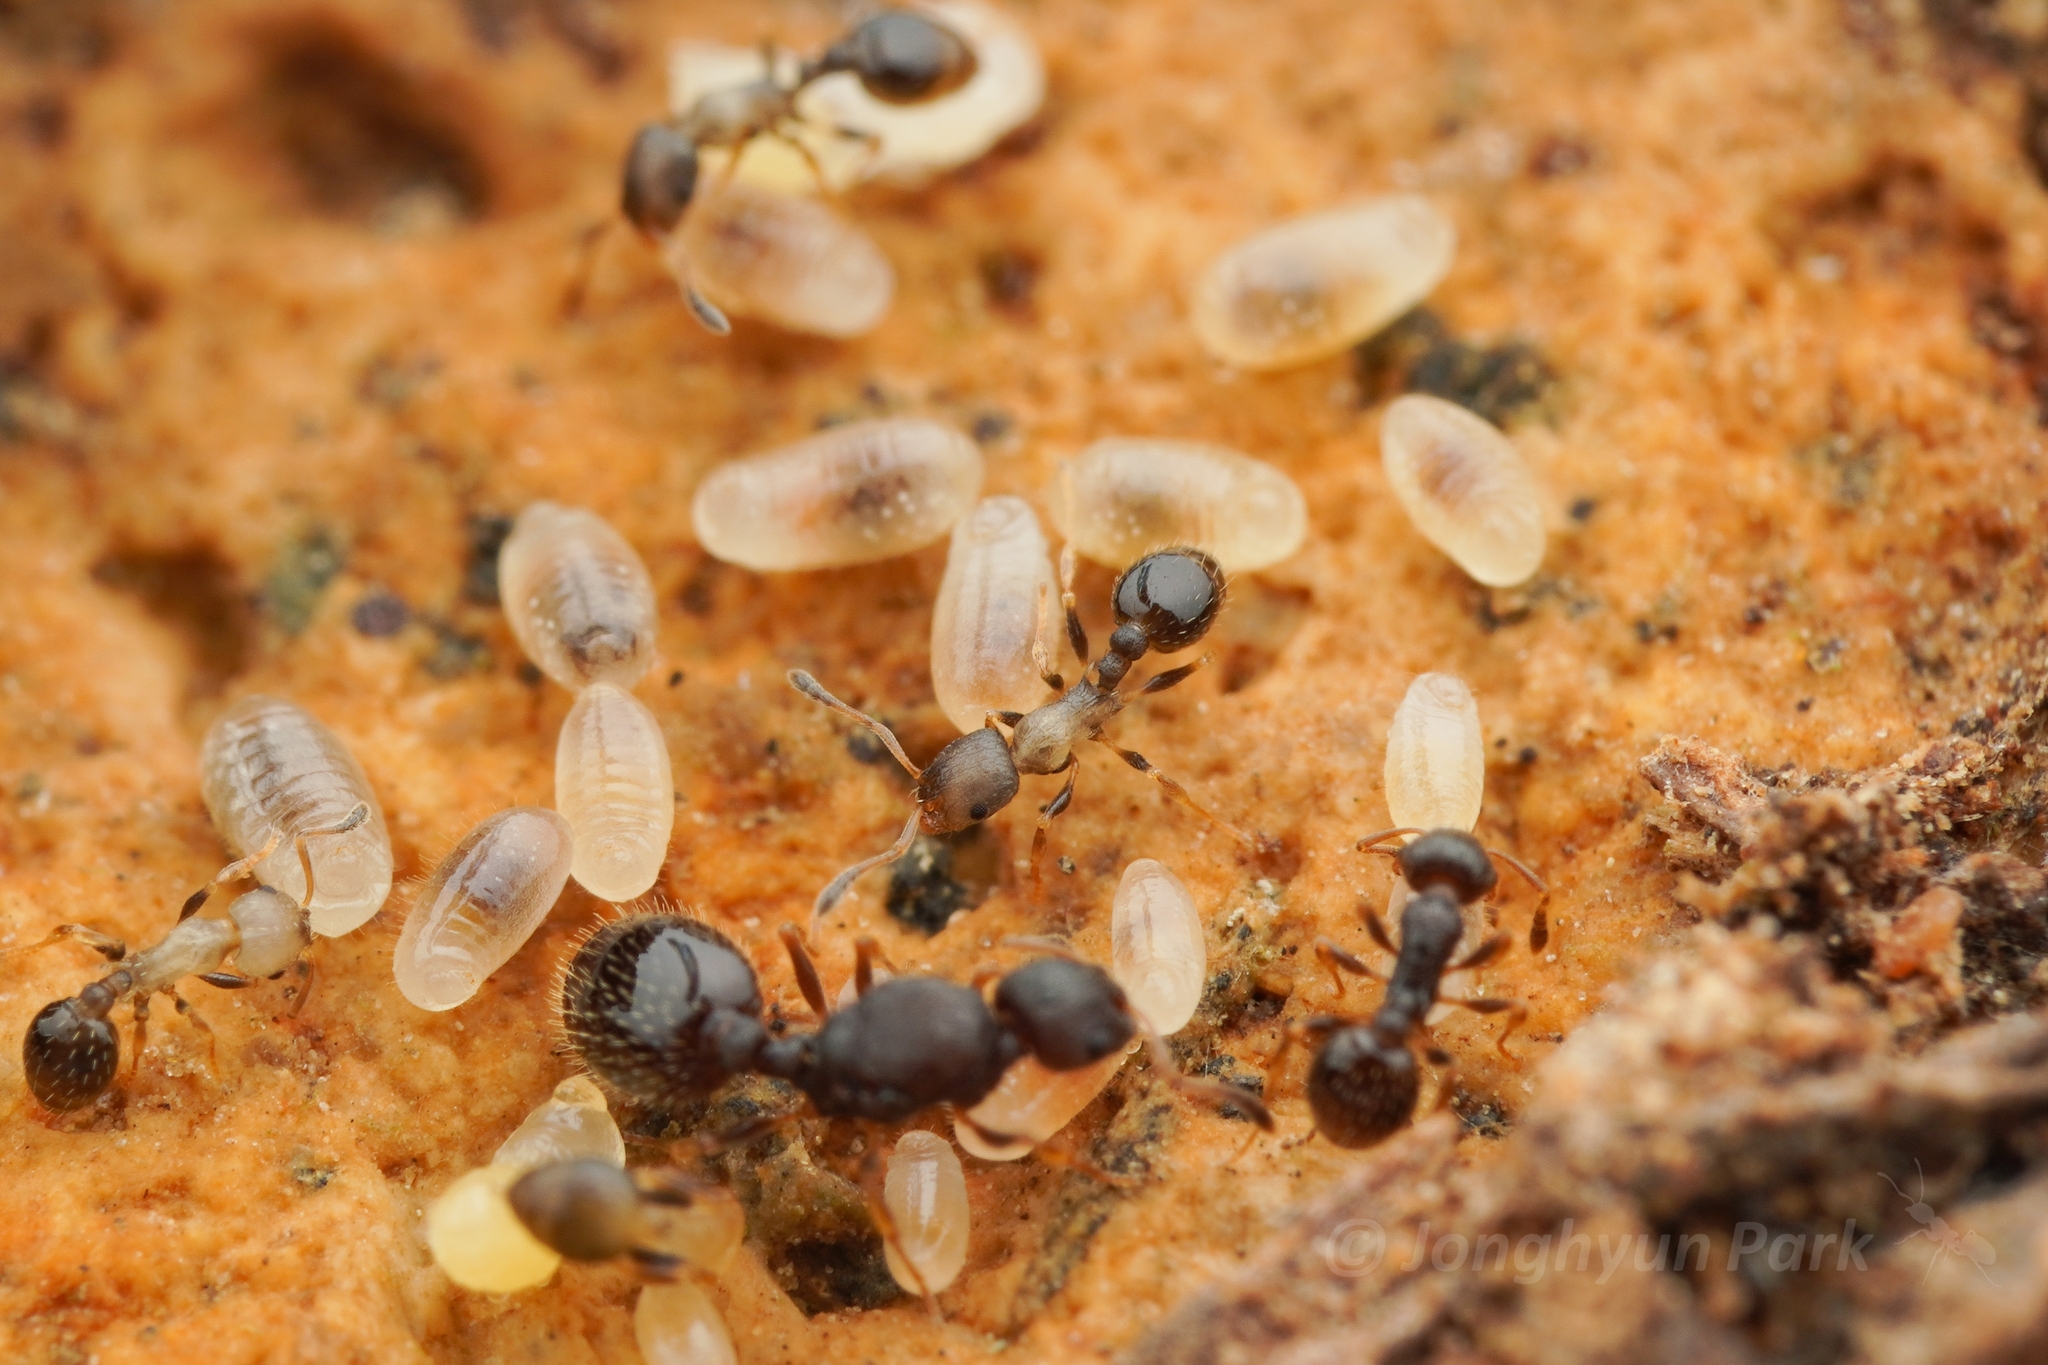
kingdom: Animalia
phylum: Arthropoda
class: Insecta
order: Hymenoptera
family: Formicidae
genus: Temnothorax
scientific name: Temnothorax
